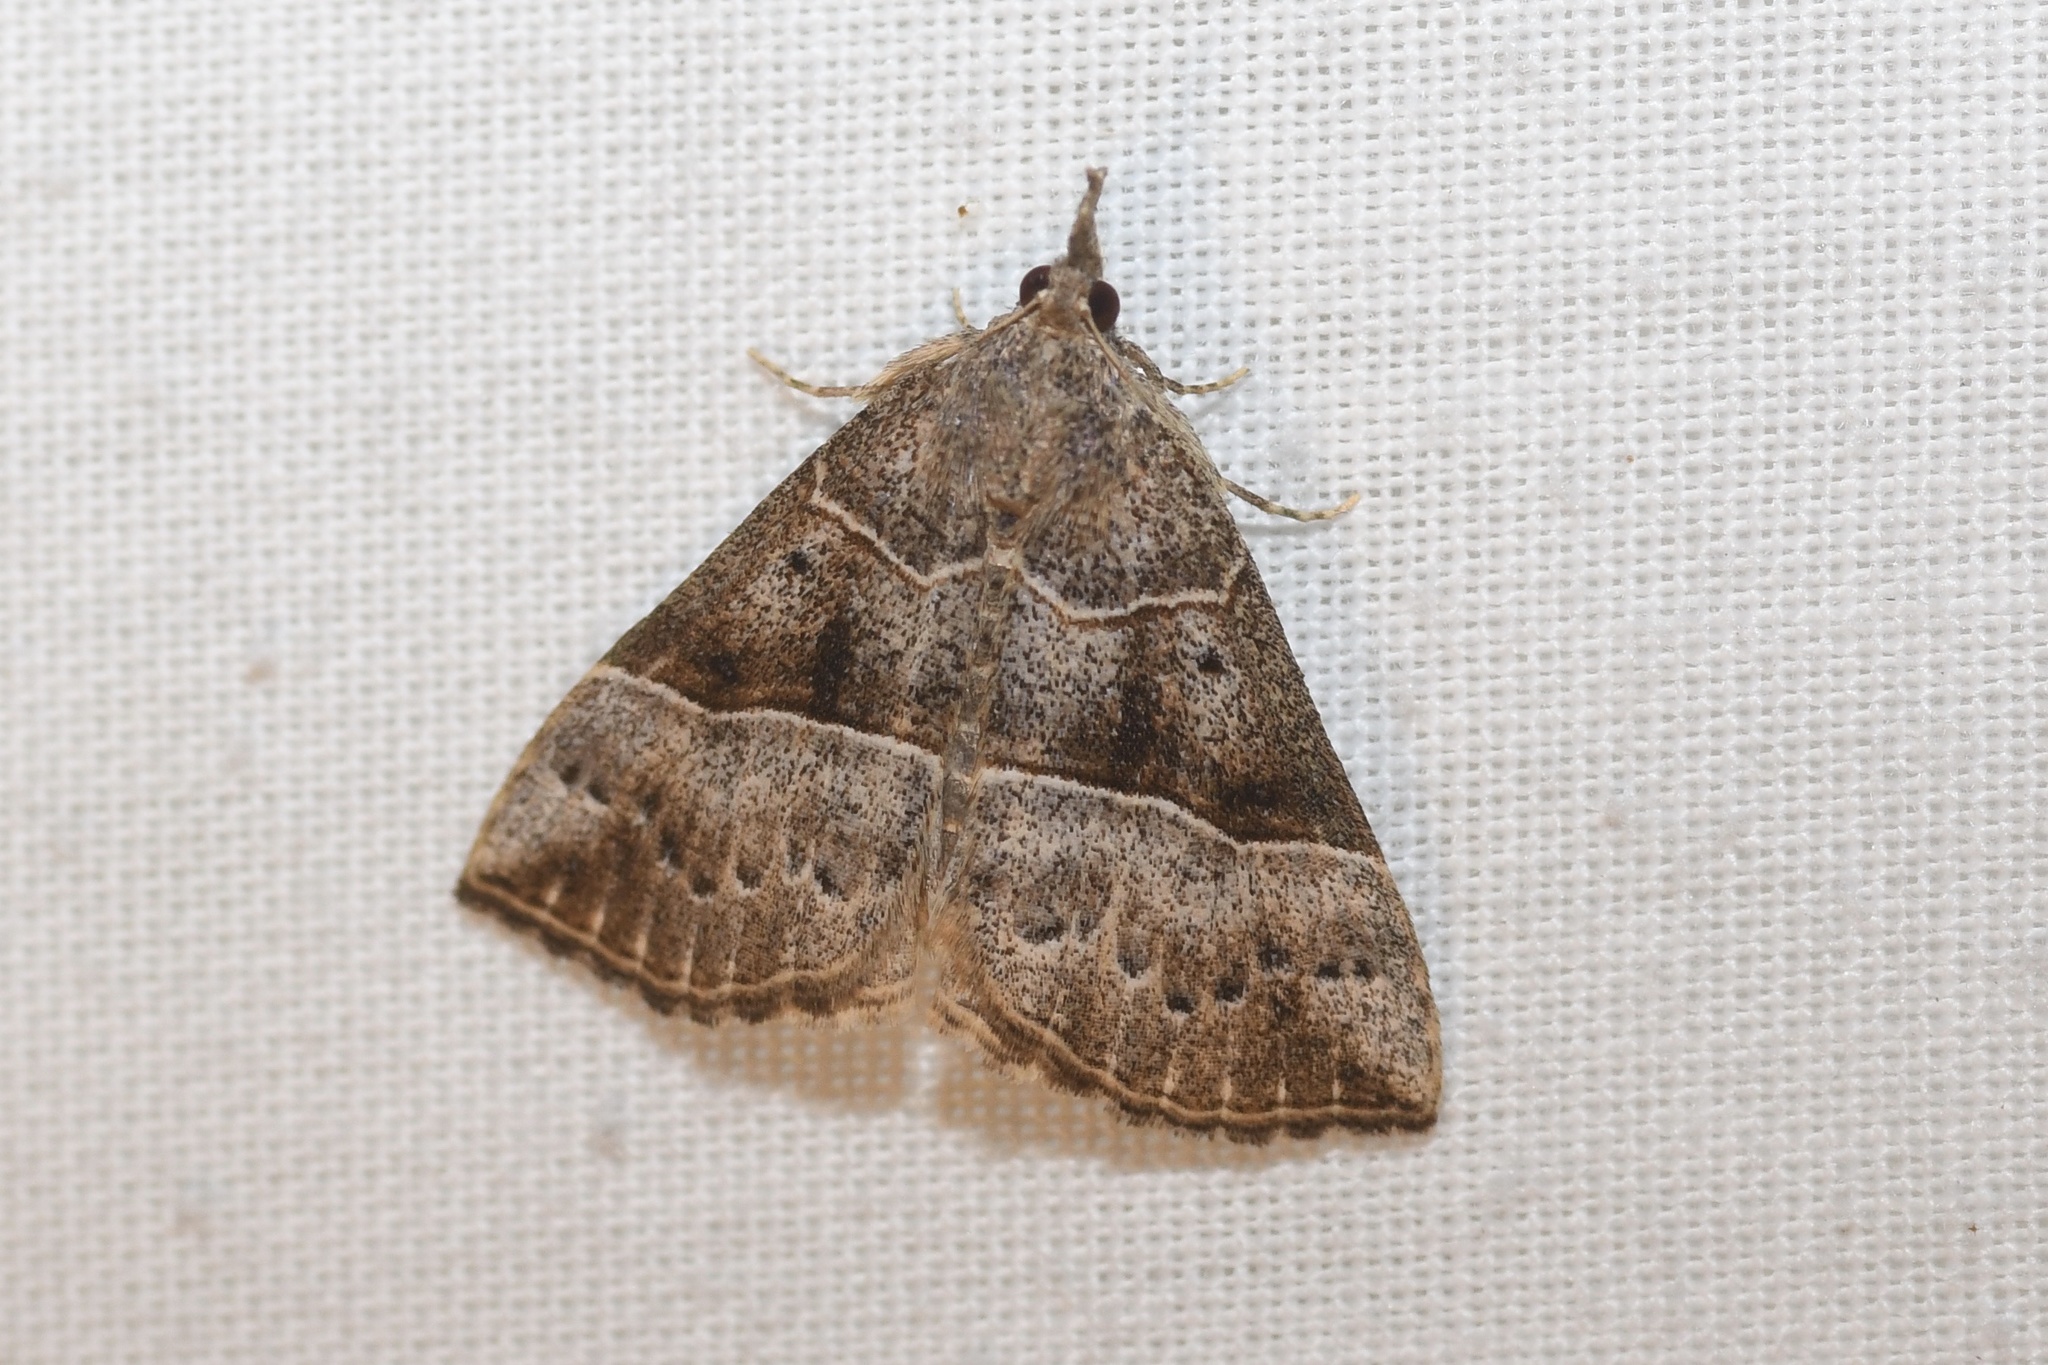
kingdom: Animalia
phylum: Arthropoda
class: Insecta
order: Lepidoptera
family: Erebidae
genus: Hypena
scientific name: Hypena deceptalis
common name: Deceptive snout
